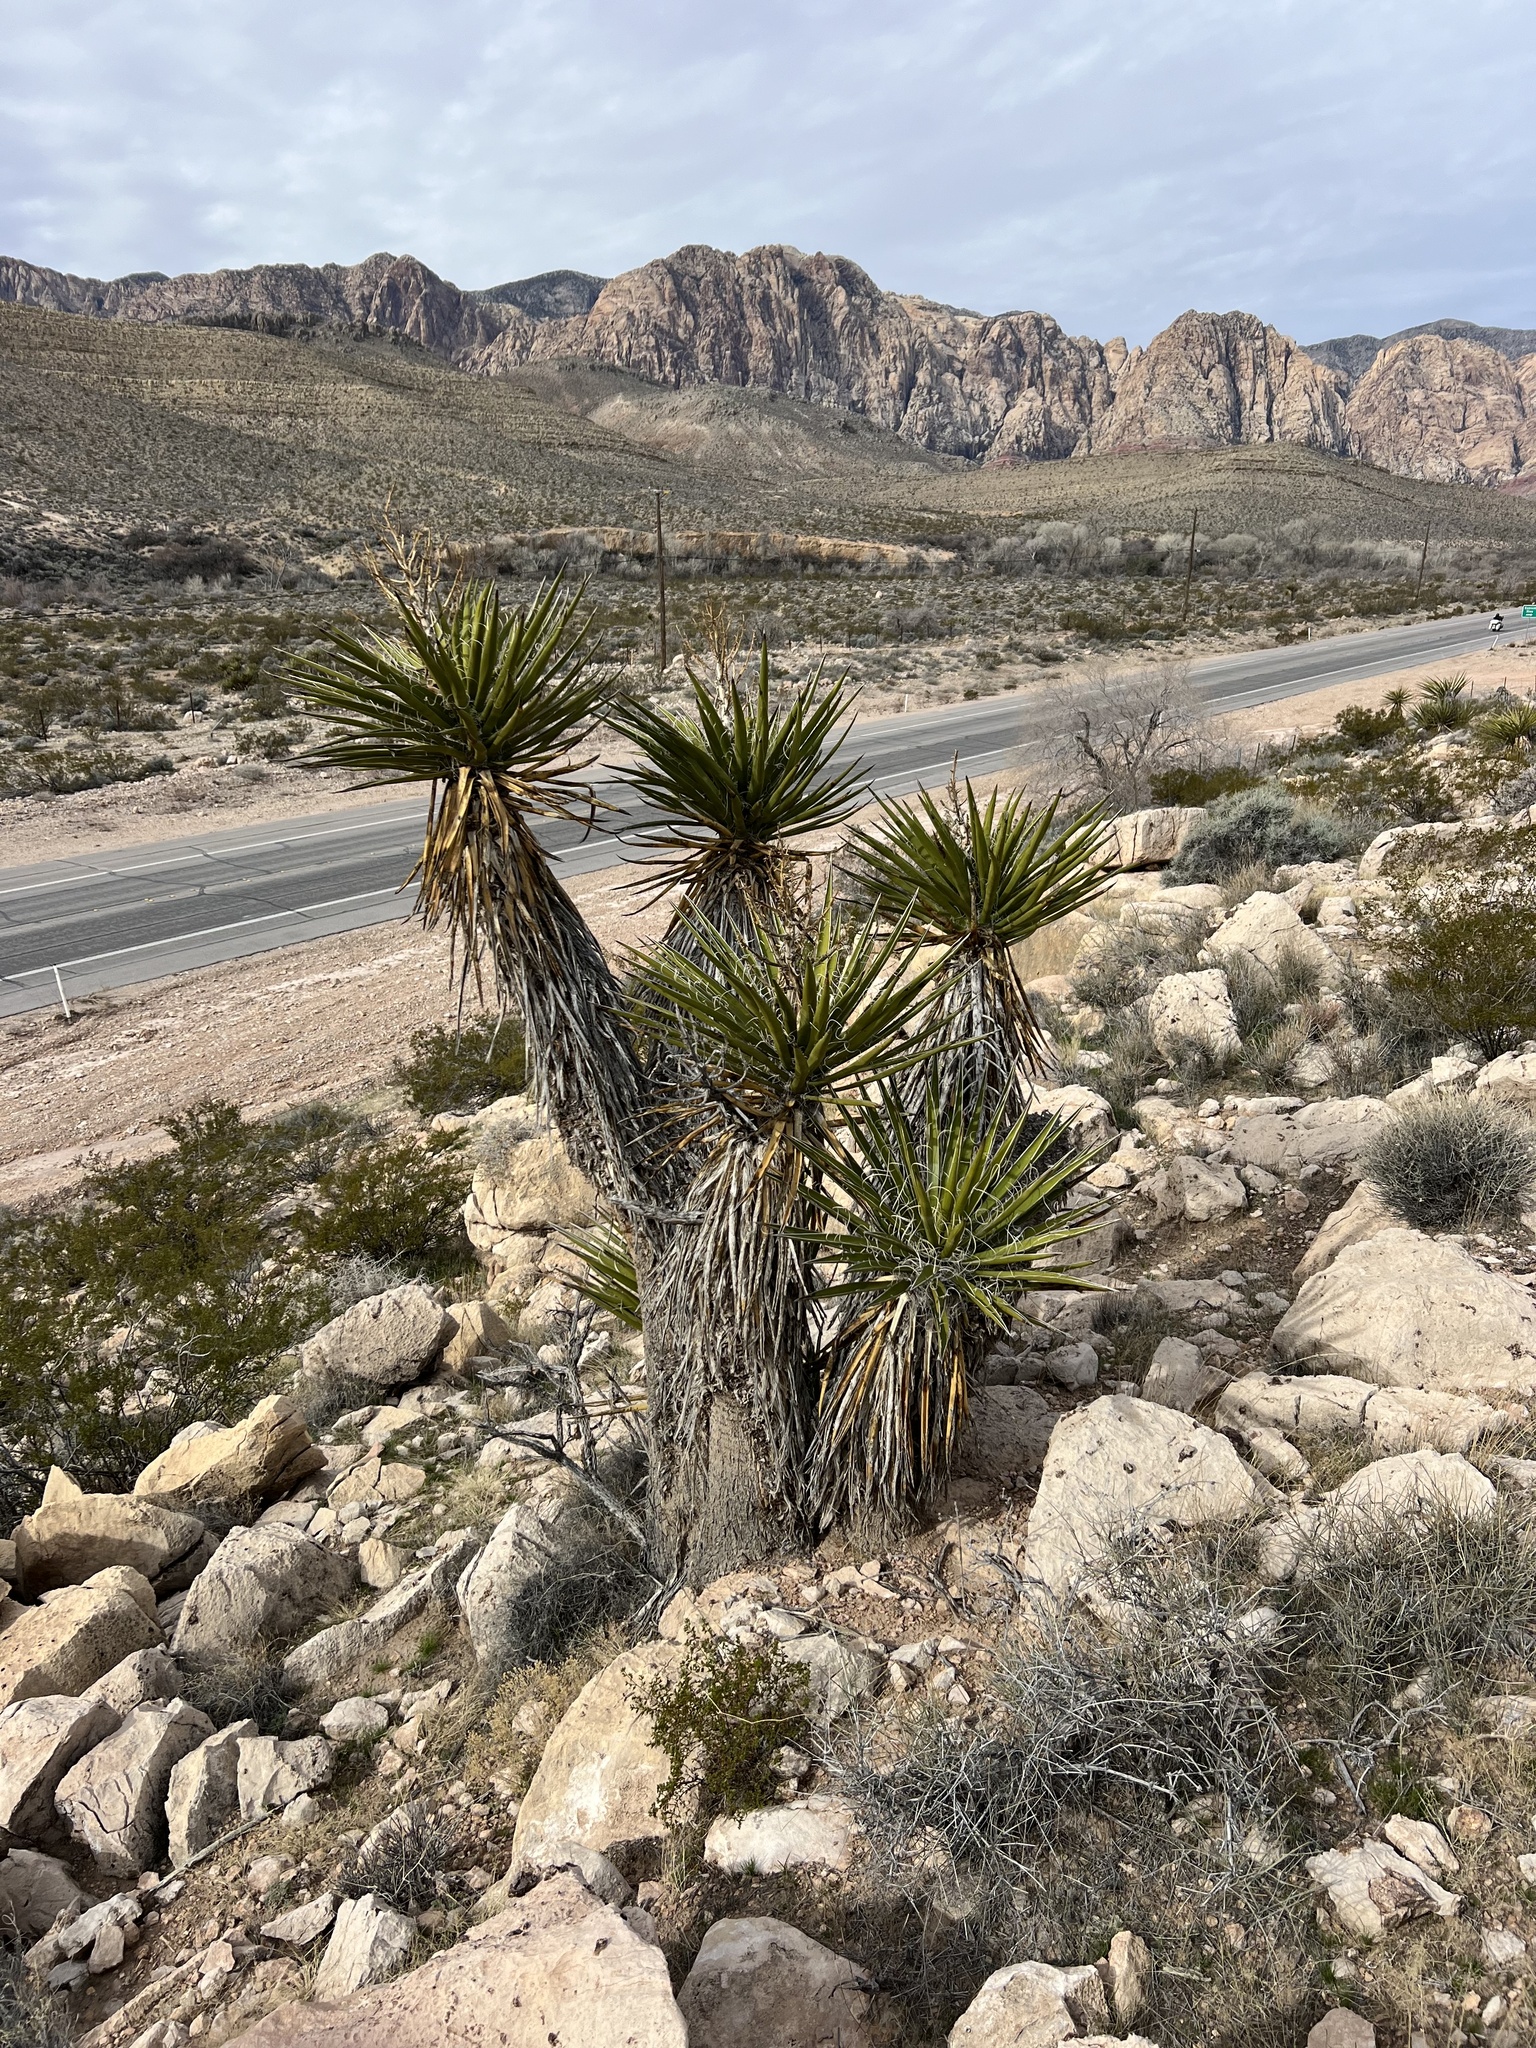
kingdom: Plantae
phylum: Tracheophyta
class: Liliopsida
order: Asparagales
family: Asparagaceae
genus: Yucca
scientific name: Yucca schidigera
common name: Mojave yucca
